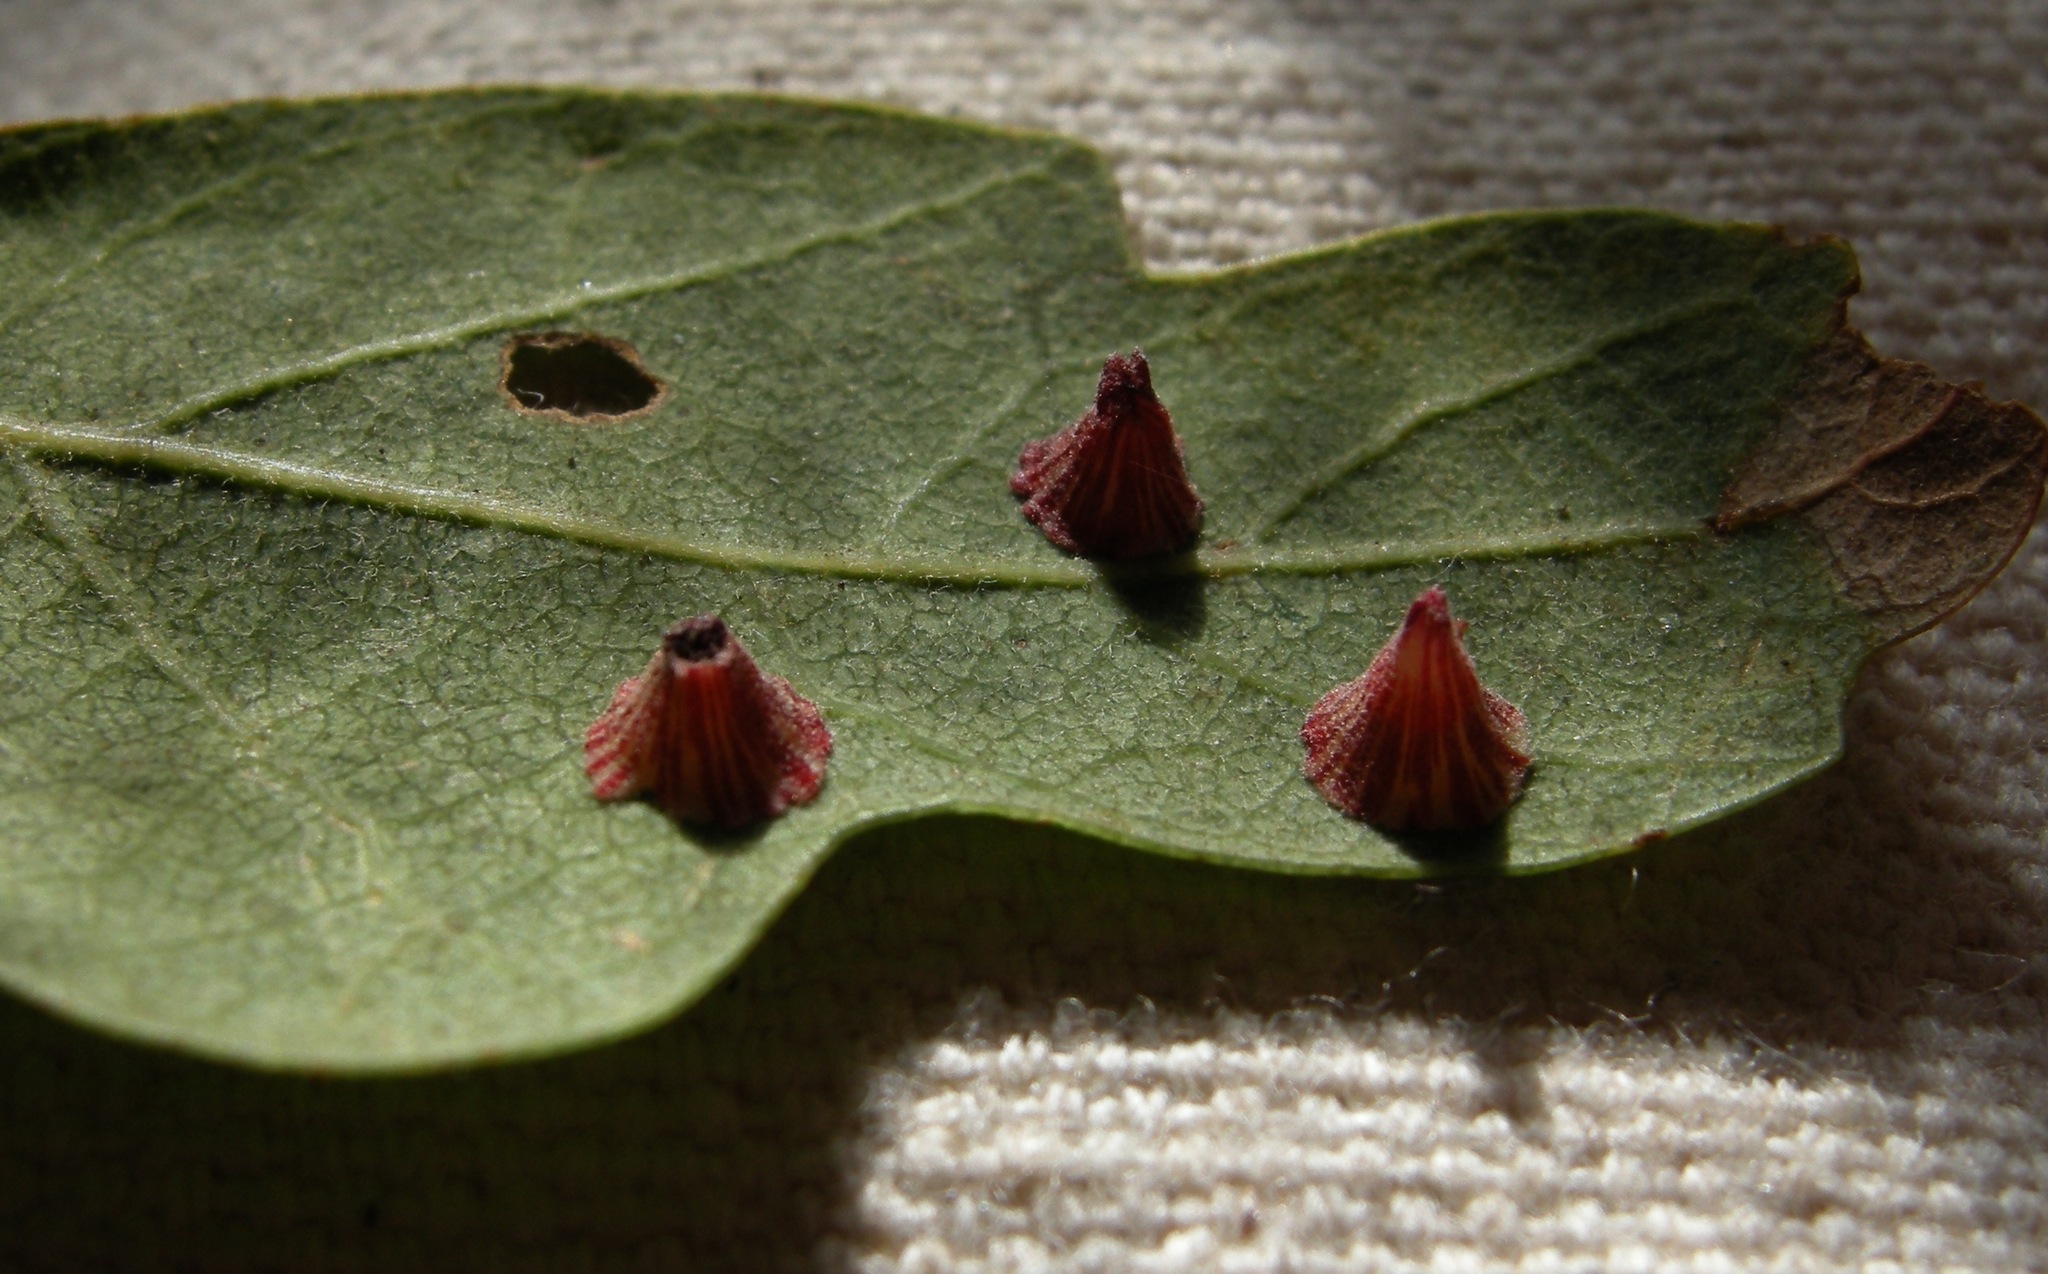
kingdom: Animalia
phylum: Arthropoda
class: Insecta
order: Hymenoptera
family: Cynipidae
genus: Andricus
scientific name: Andricus
